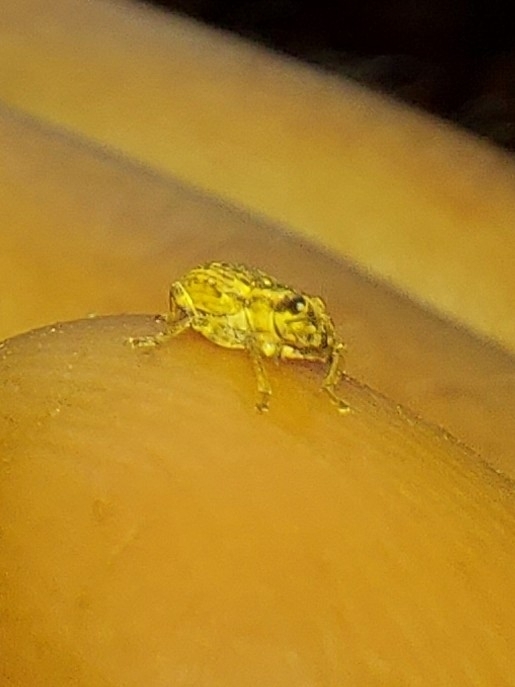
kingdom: Animalia
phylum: Arthropoda
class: Insecta
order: Coleoptera
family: Curculionidae
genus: Sitona
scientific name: Sitona discoideus
